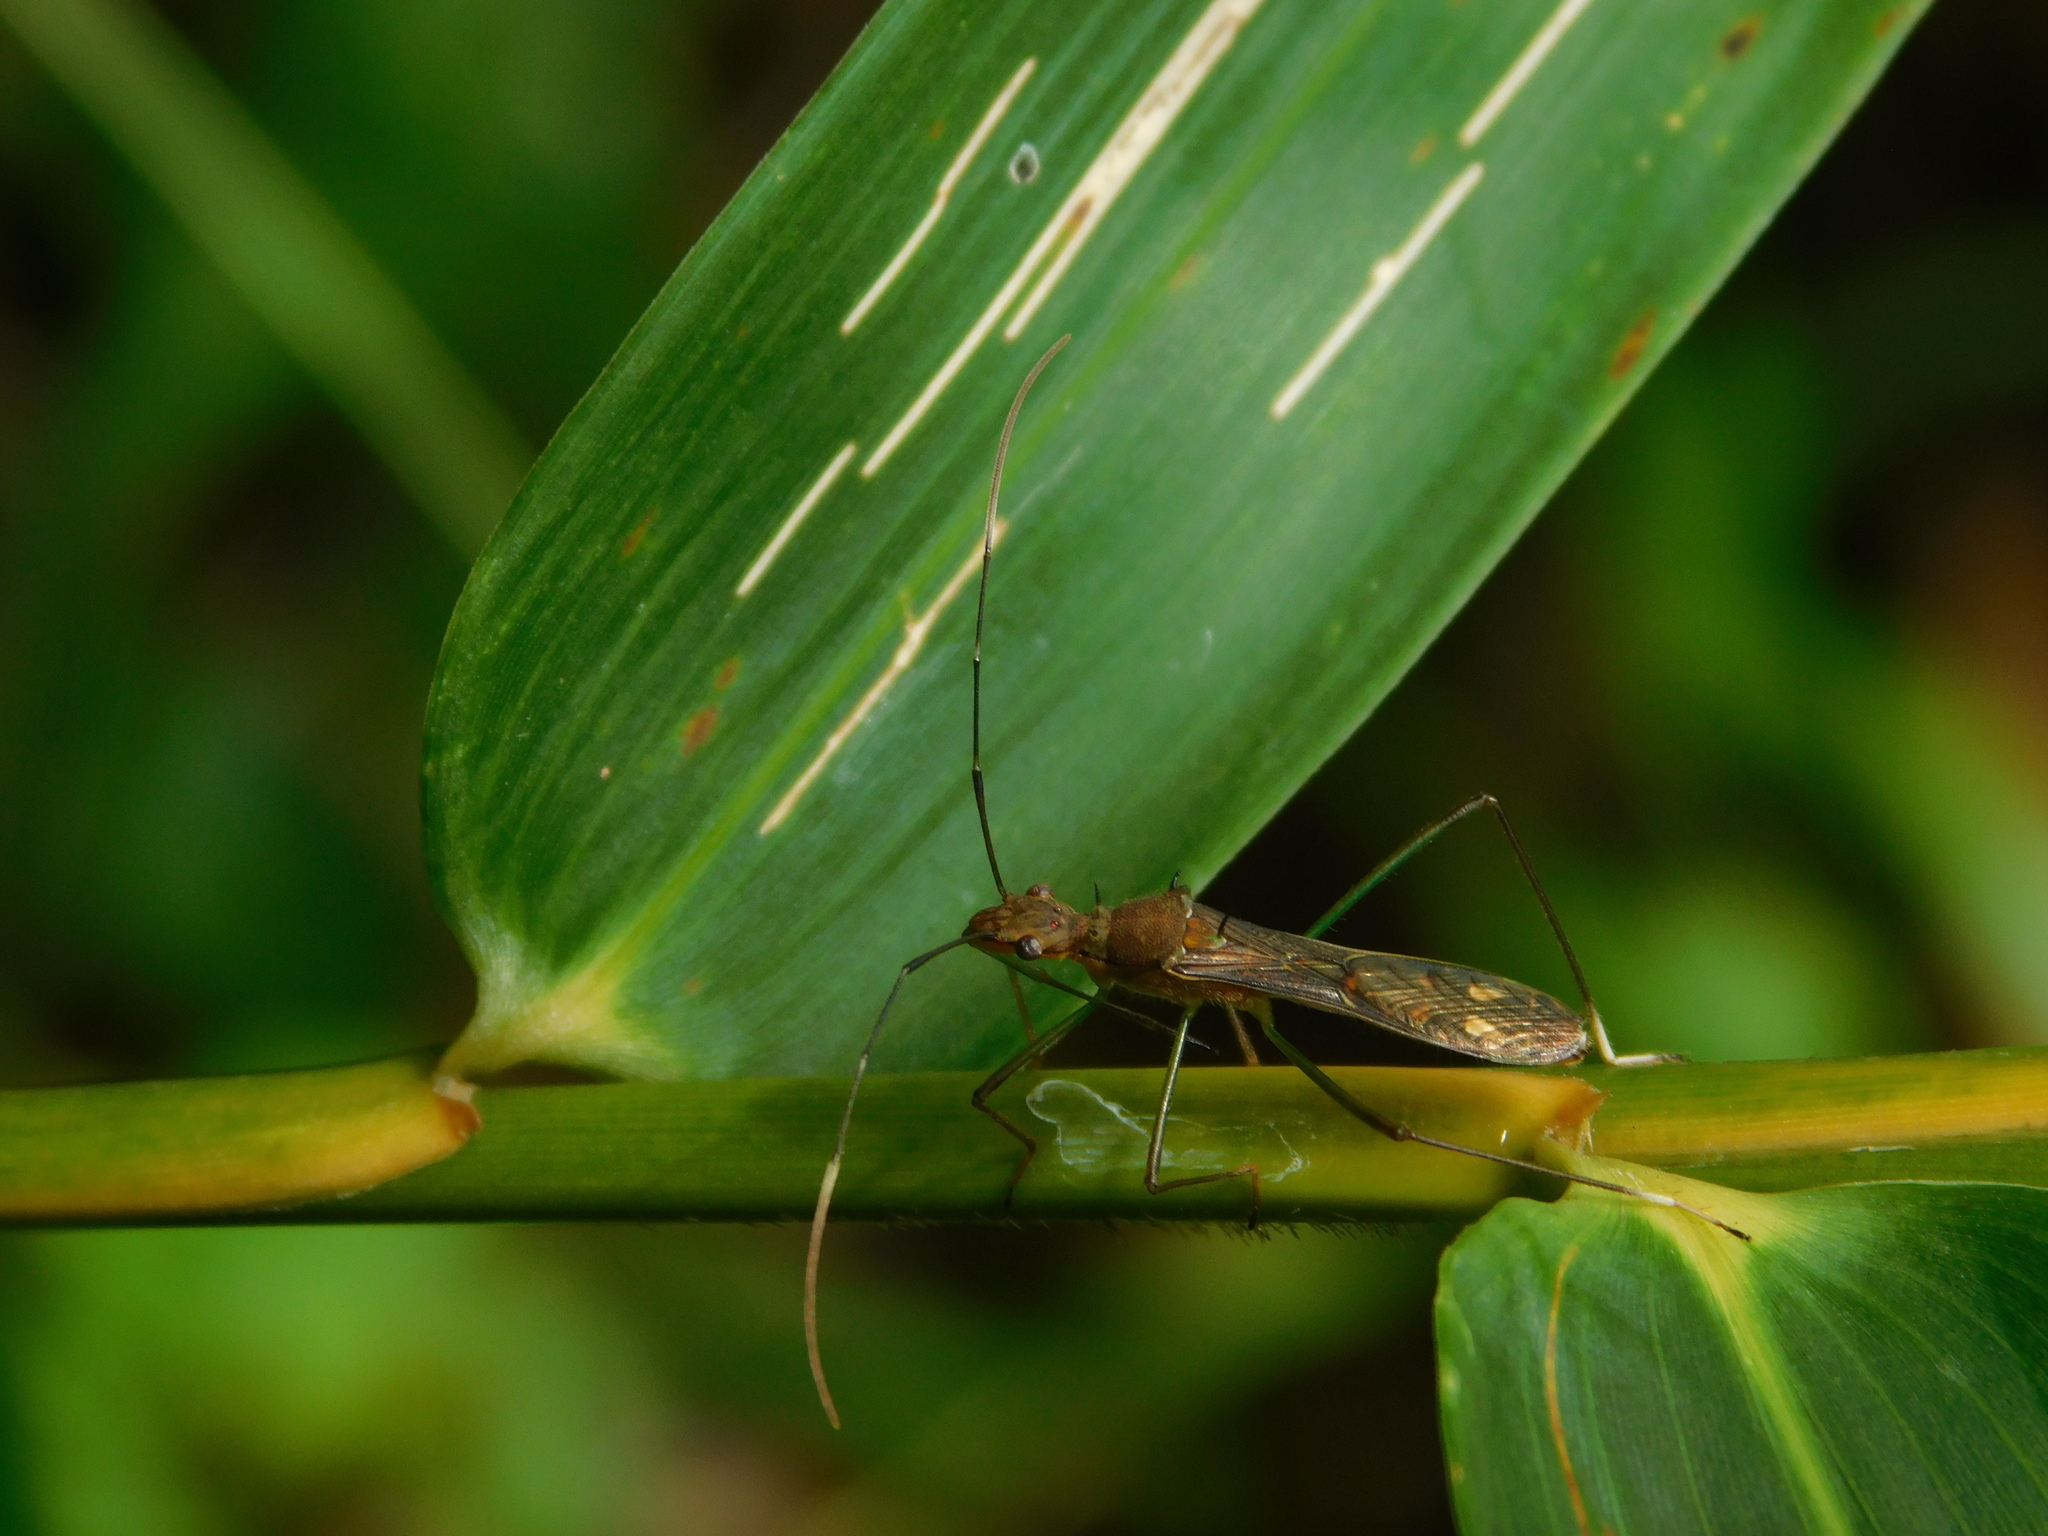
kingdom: Animalia
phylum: Arthropoda
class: Insecta
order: Hemiptera
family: Alydidae
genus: Marcius
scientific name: Marcius longirostris
